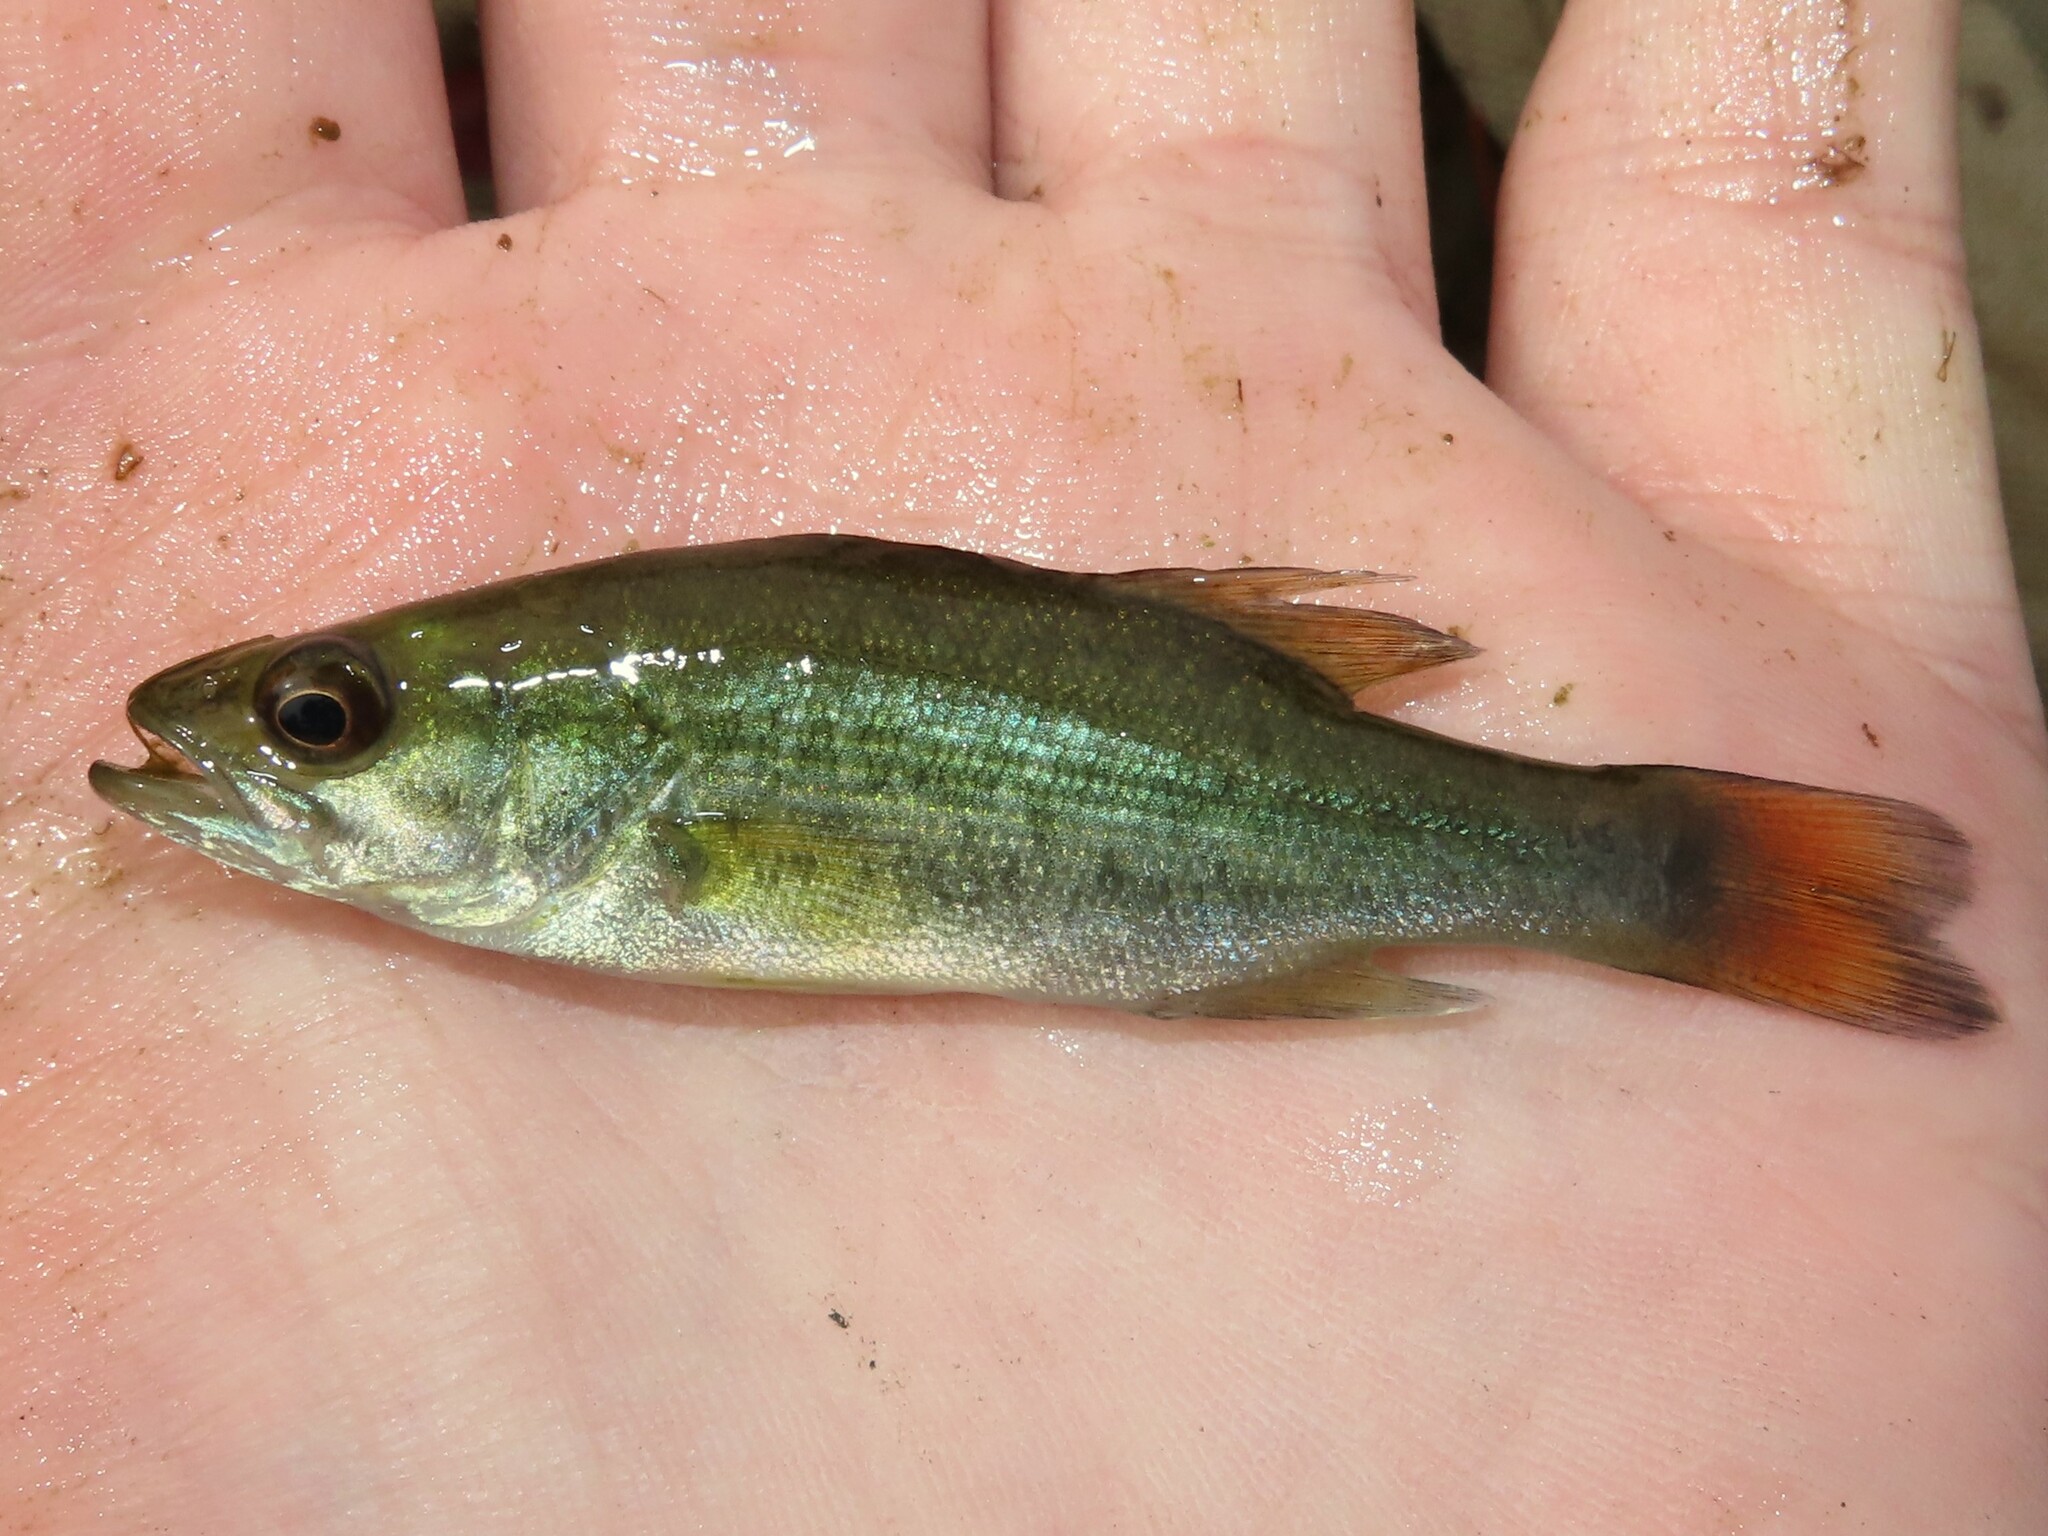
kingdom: Animalia
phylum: Chordata
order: Perciformes
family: Centrarchidae
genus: Micropterus
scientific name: Micropterus
